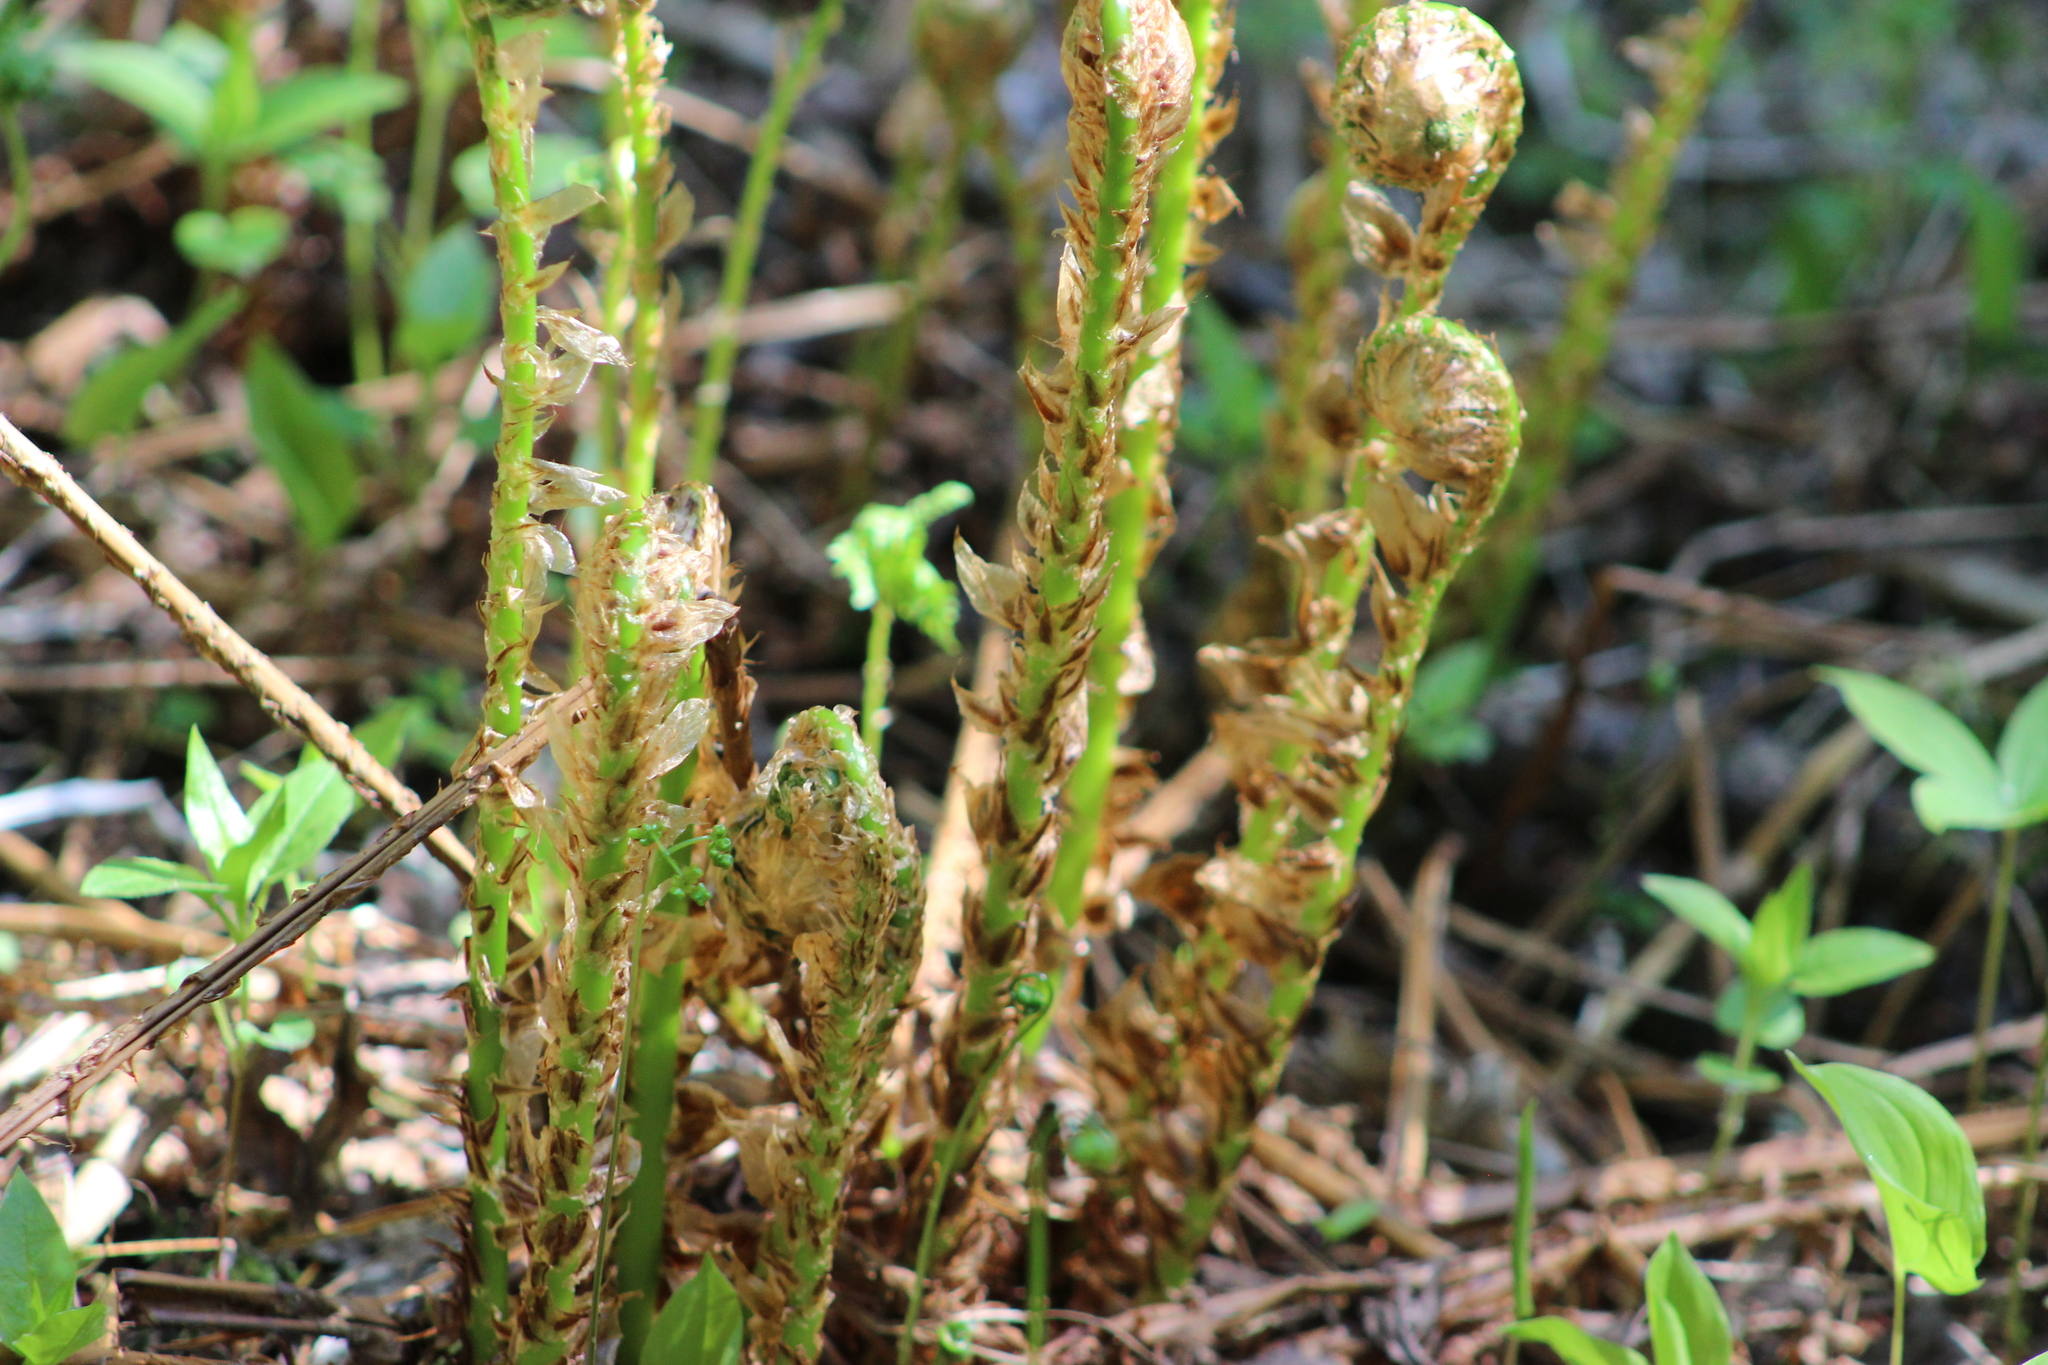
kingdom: Plantae
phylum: Tracheophyta
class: Polypodiopsida
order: Polypodiales
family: Dryopteridaceae
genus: Dryopteris
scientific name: Dryopteris expansa
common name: Northern buckler fern
